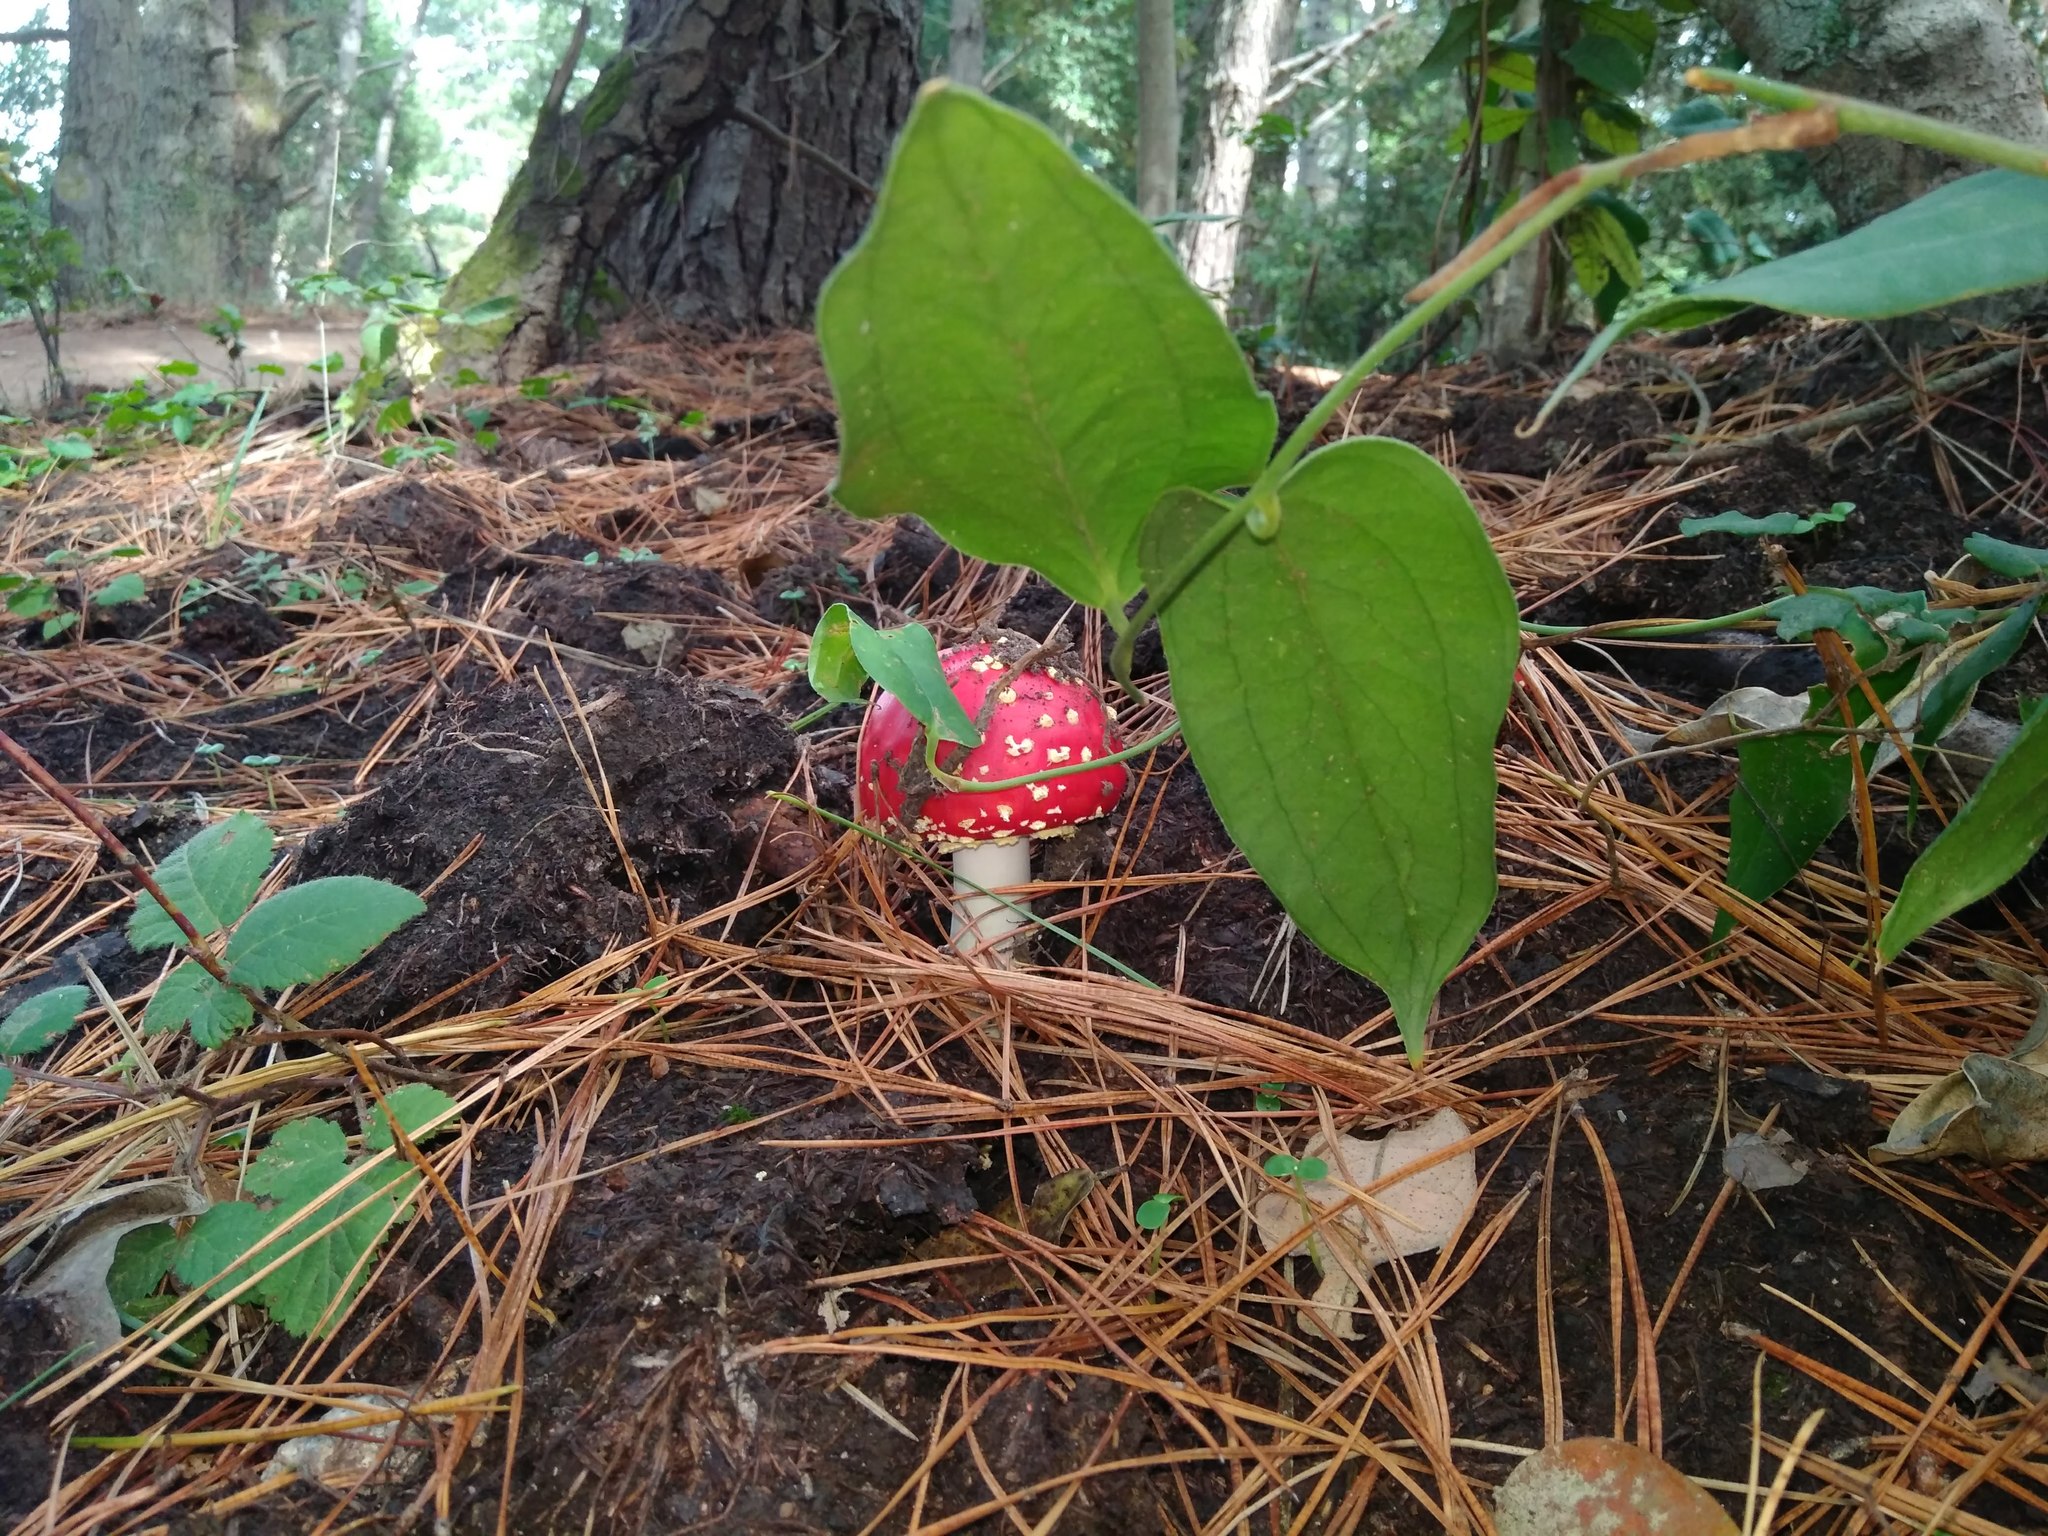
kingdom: Fungi
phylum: Basidiomycota
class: Agaricomycetes
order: Agaricales
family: Amanitaceae
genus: Amanita
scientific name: Amanita muscaria
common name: Fly agaric
